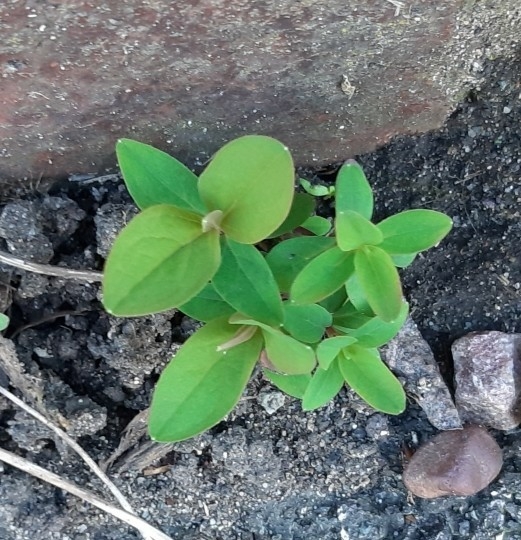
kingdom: Plantae
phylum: Tracheophyta
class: Magnoliopsida
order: Malpighiales
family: Hypericaceae
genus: Hypericum
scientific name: Hypericum androsaemum
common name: Sweet-amber
